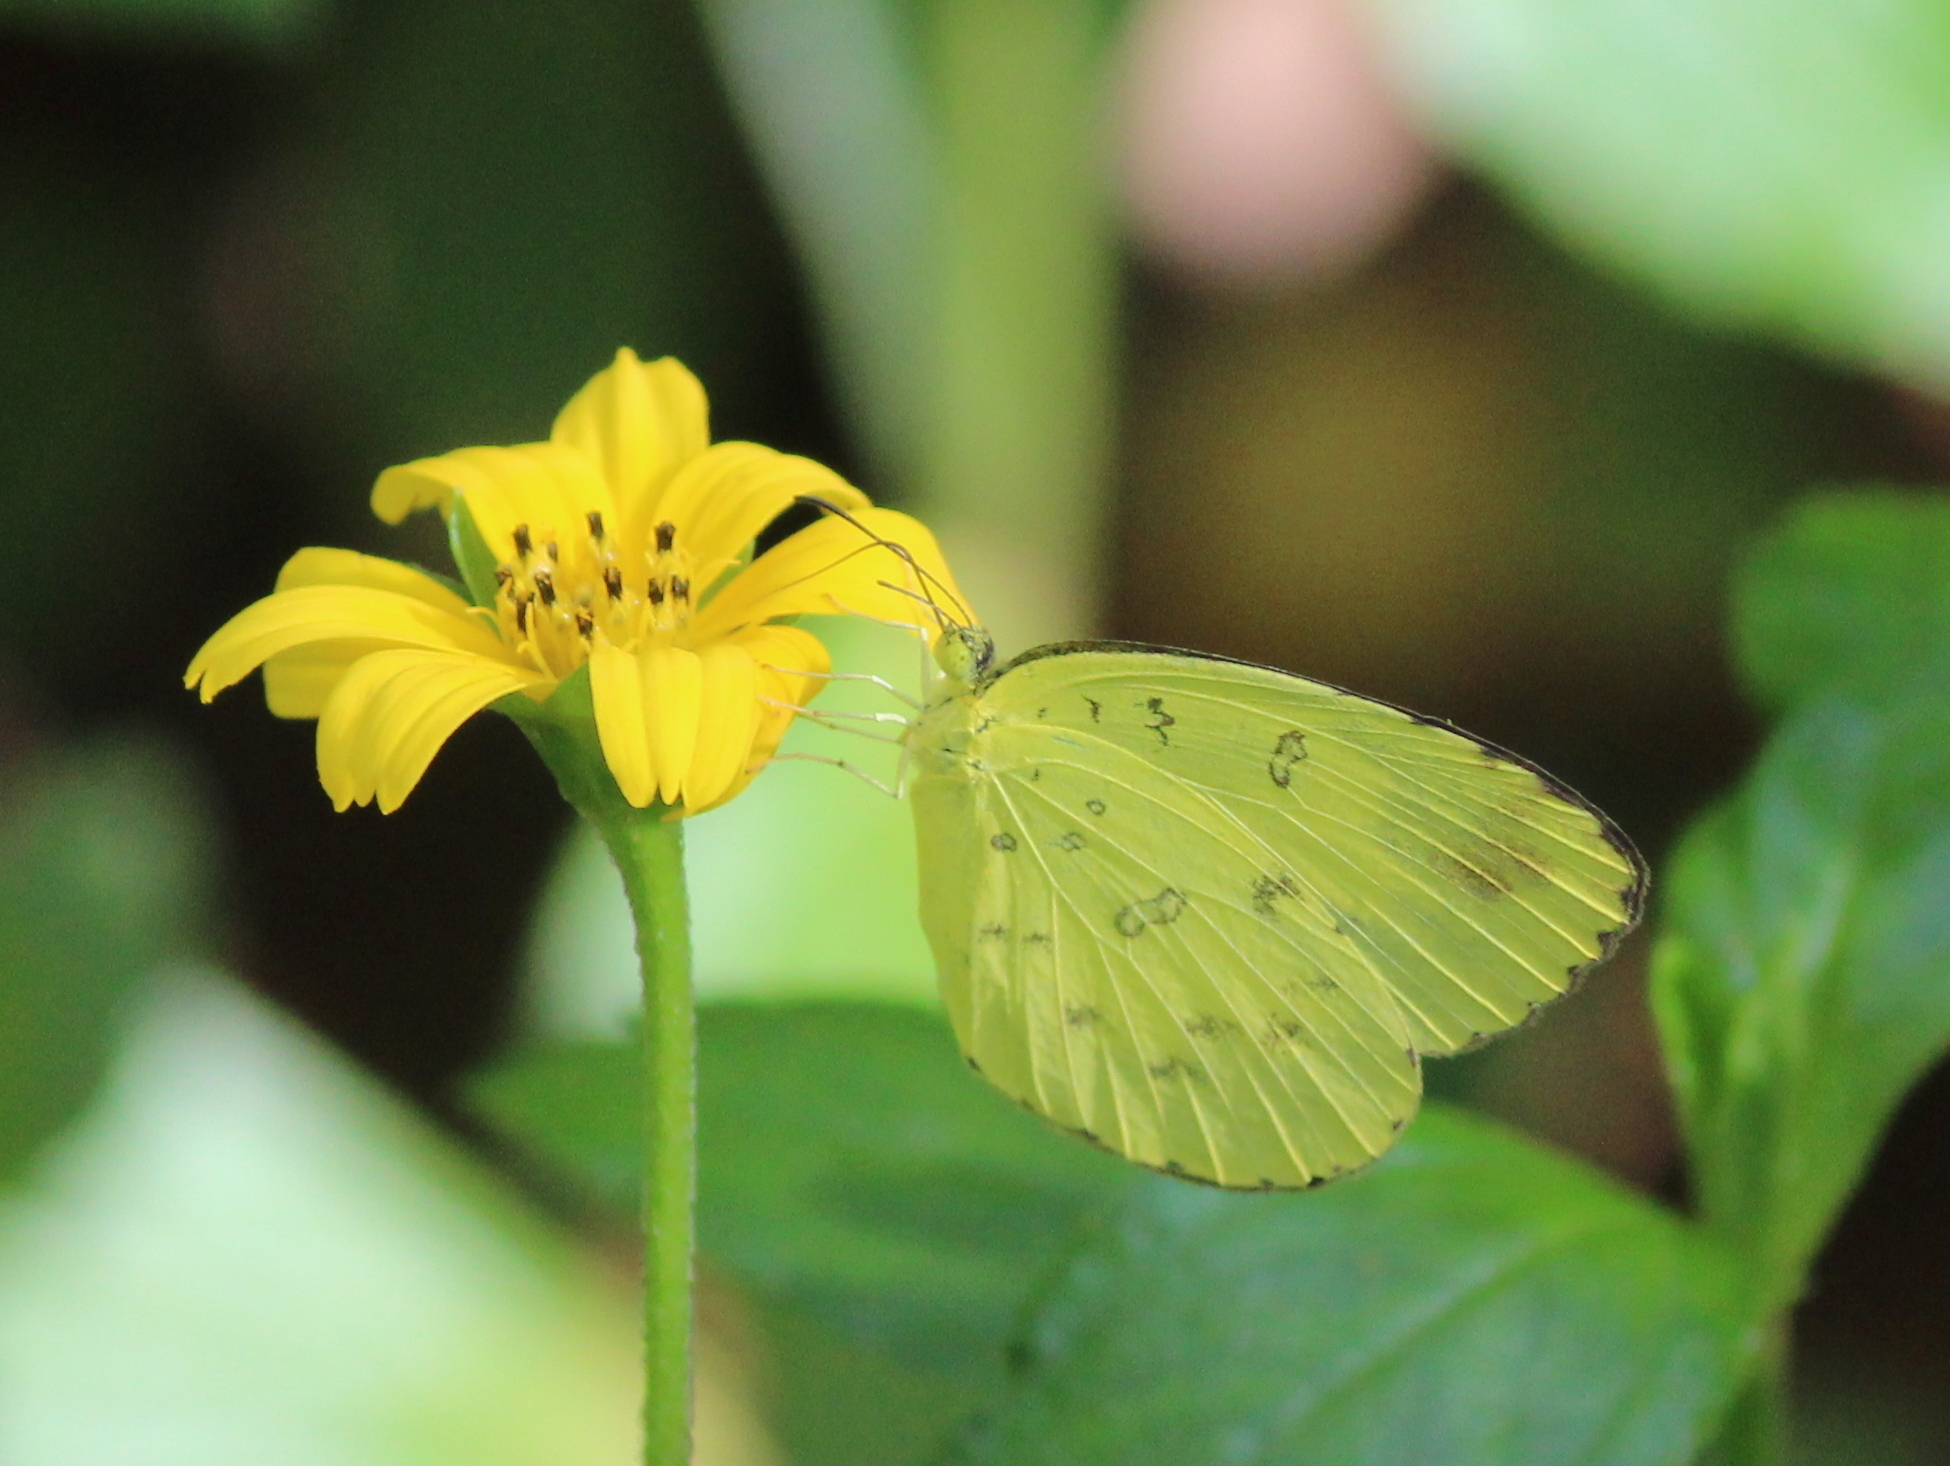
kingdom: Animalia
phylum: Arthropoda
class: Insecta
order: Lepidoptera
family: Pieridae
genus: Eurema
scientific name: Eurema blanda
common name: Three-spot grass yellow
